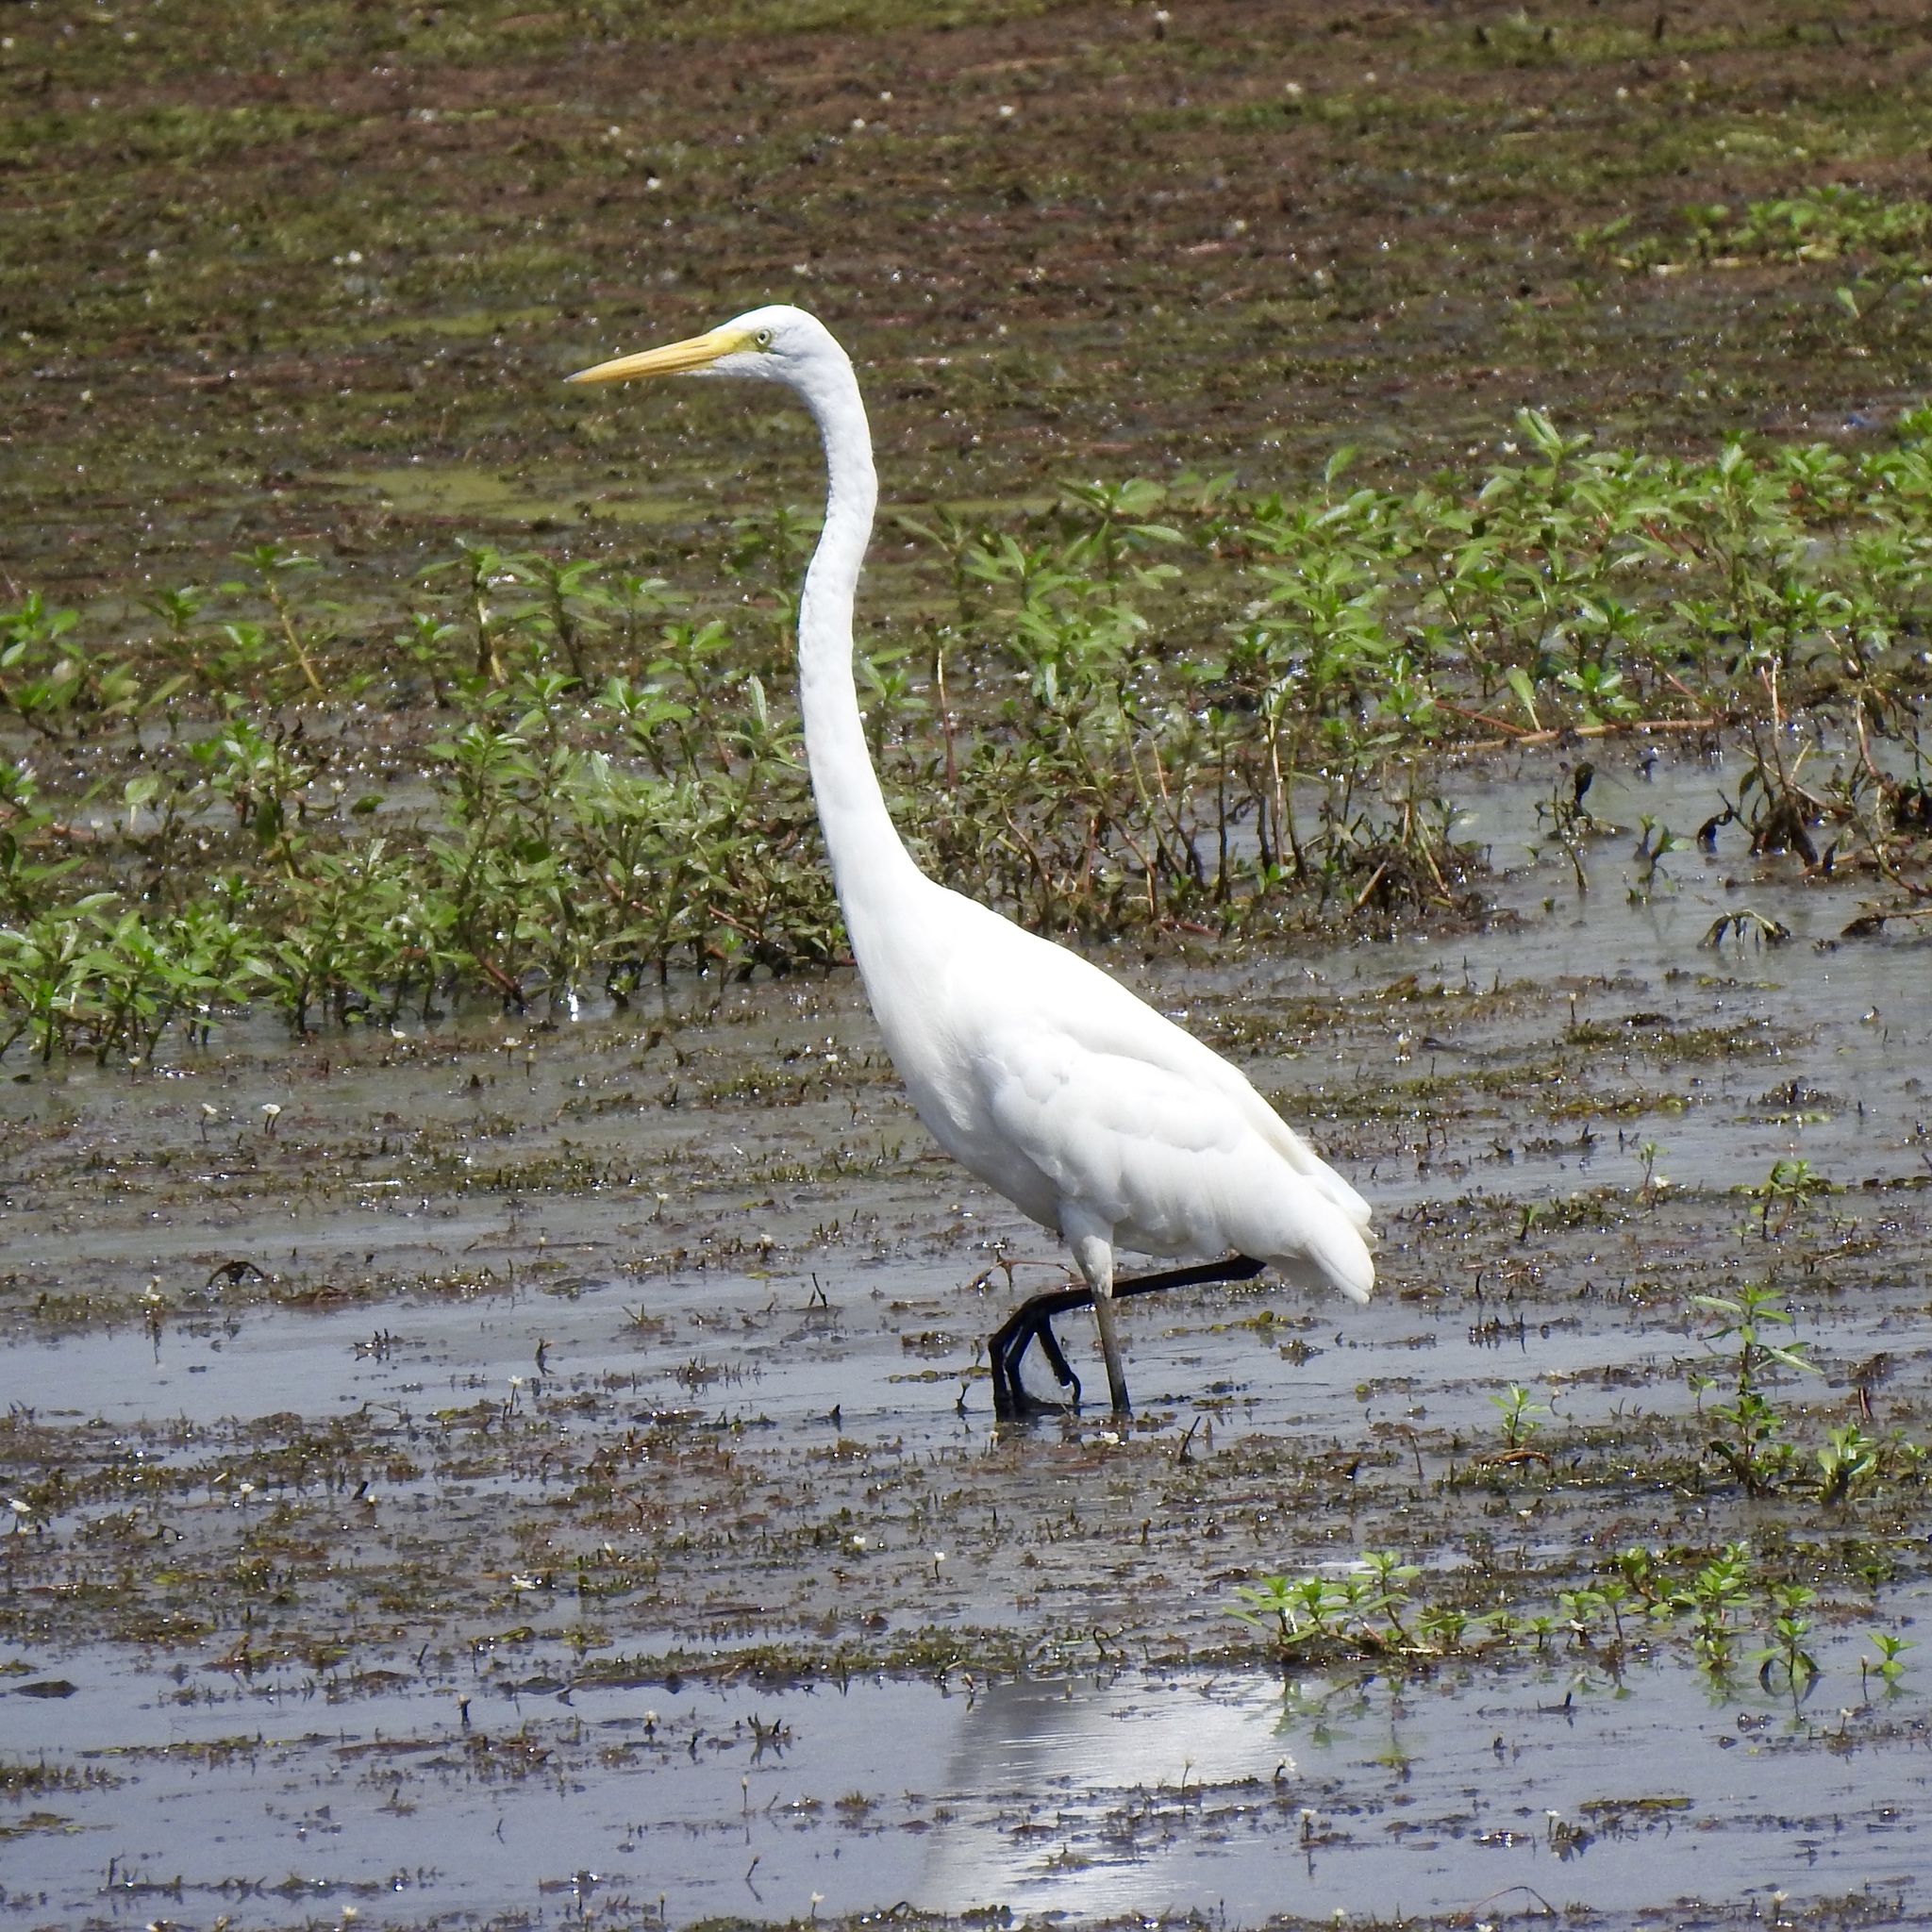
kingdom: Animalia
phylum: Chordata
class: Aves
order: Pelecaniformes
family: Ardeidae
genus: Ardea
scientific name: Ardea alba
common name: Great egret
